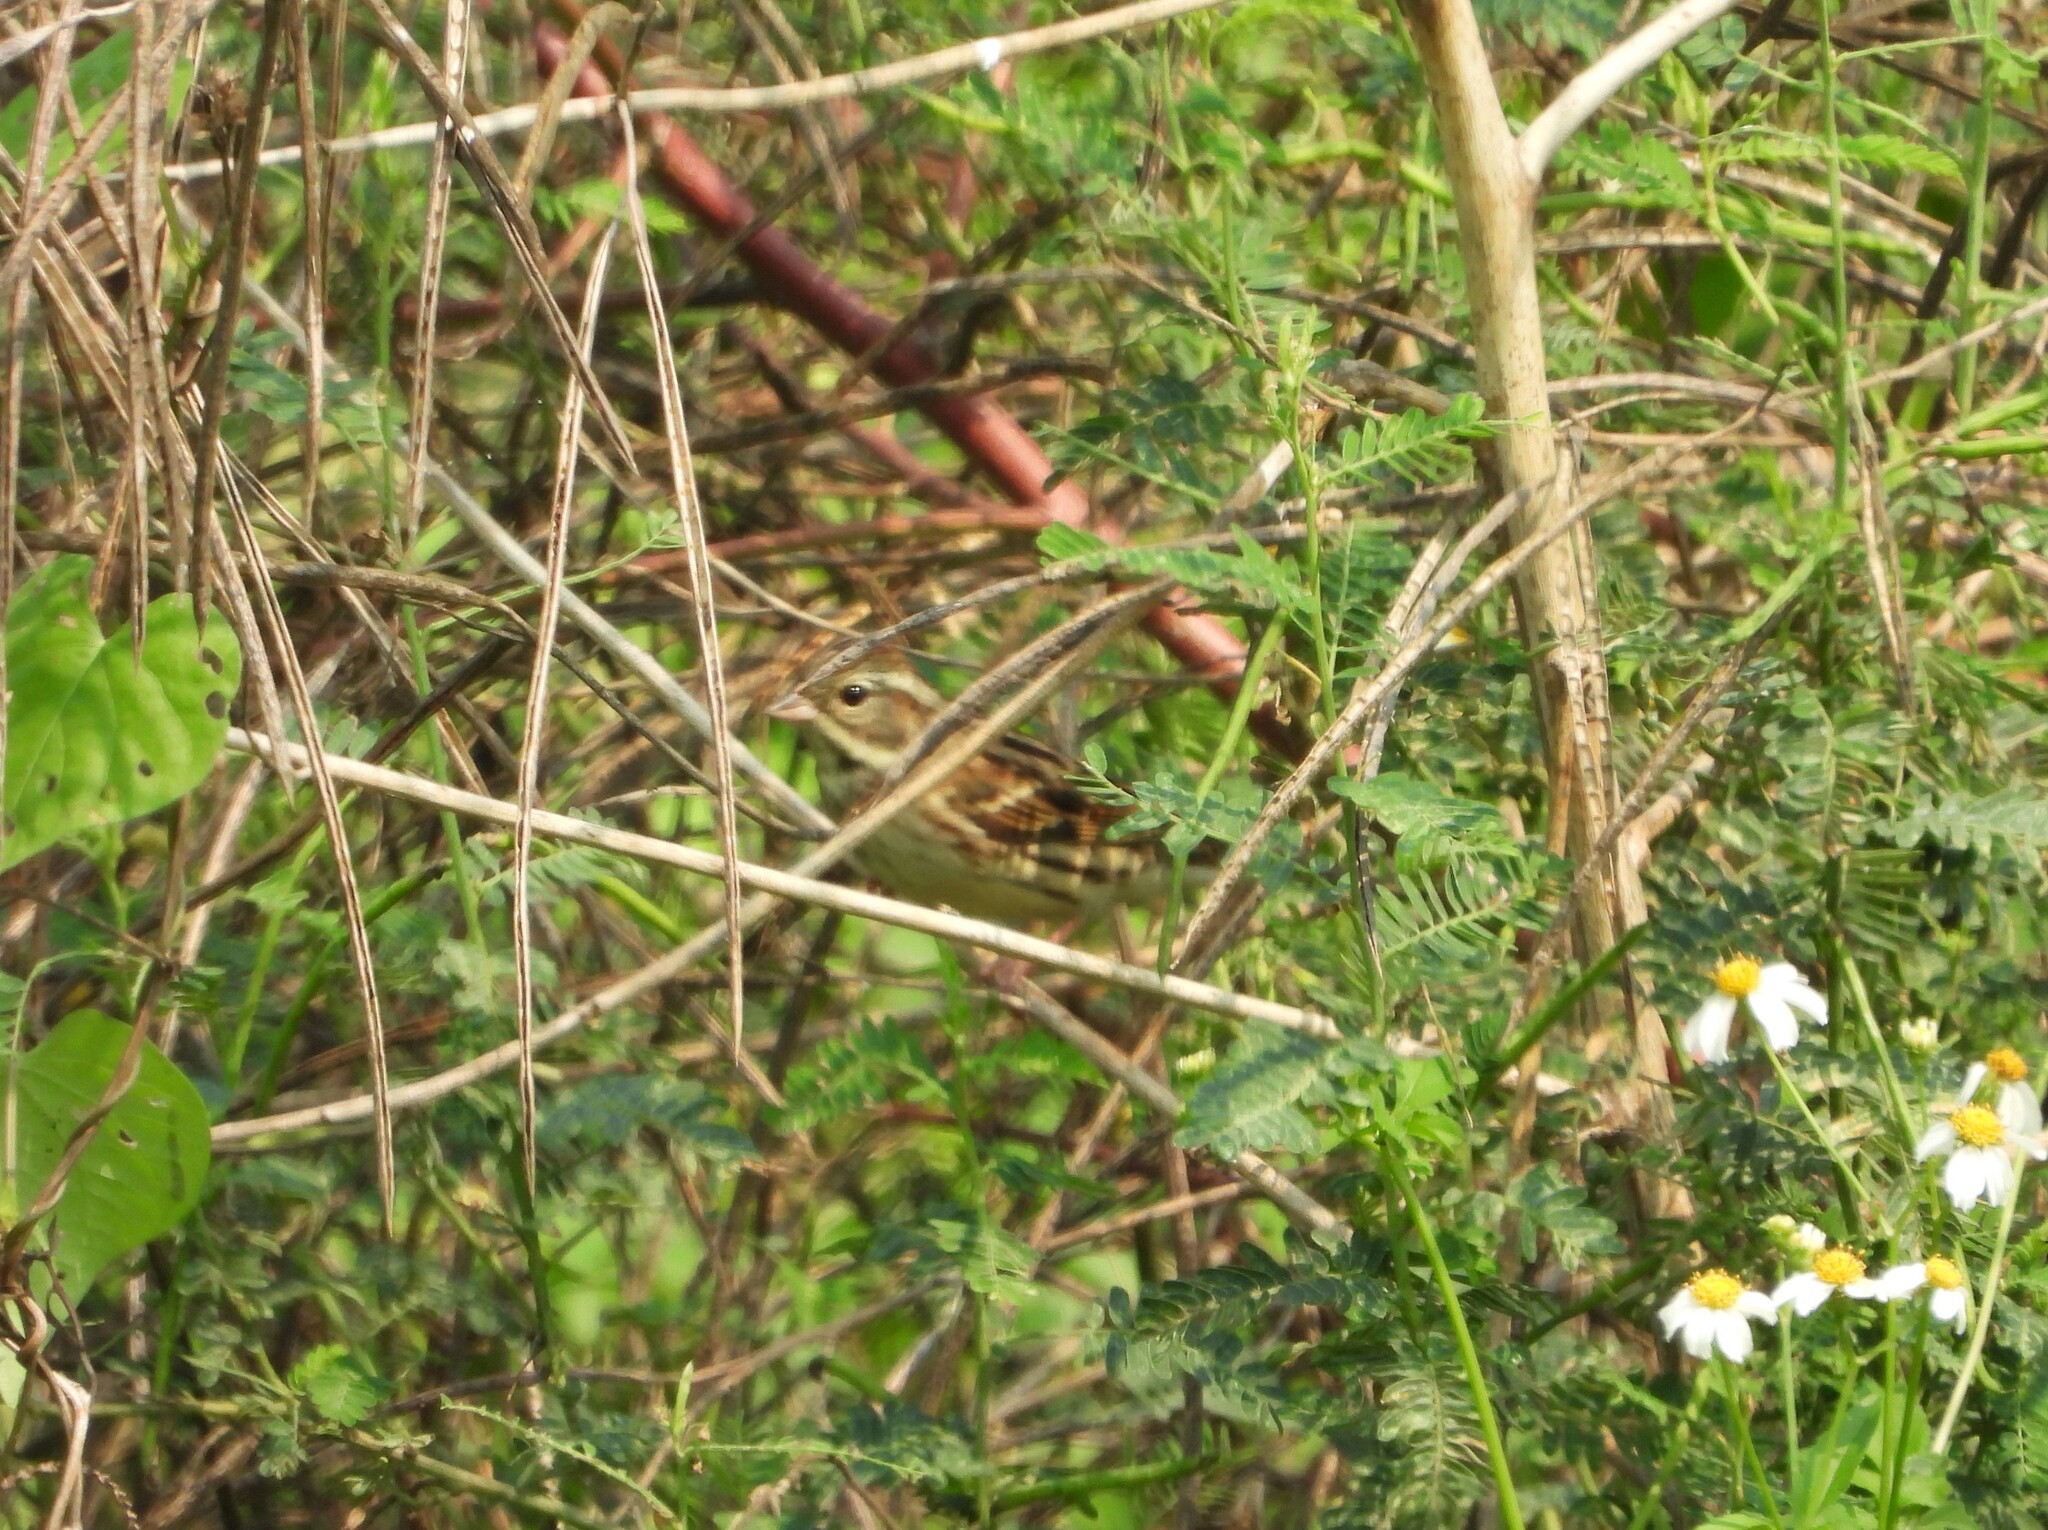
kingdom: Animalia
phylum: Chordata
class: Aves
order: Passeriformes
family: Emberizidae
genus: Emberiza
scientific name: Emberiza spodocephala
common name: Black-faced bunting
